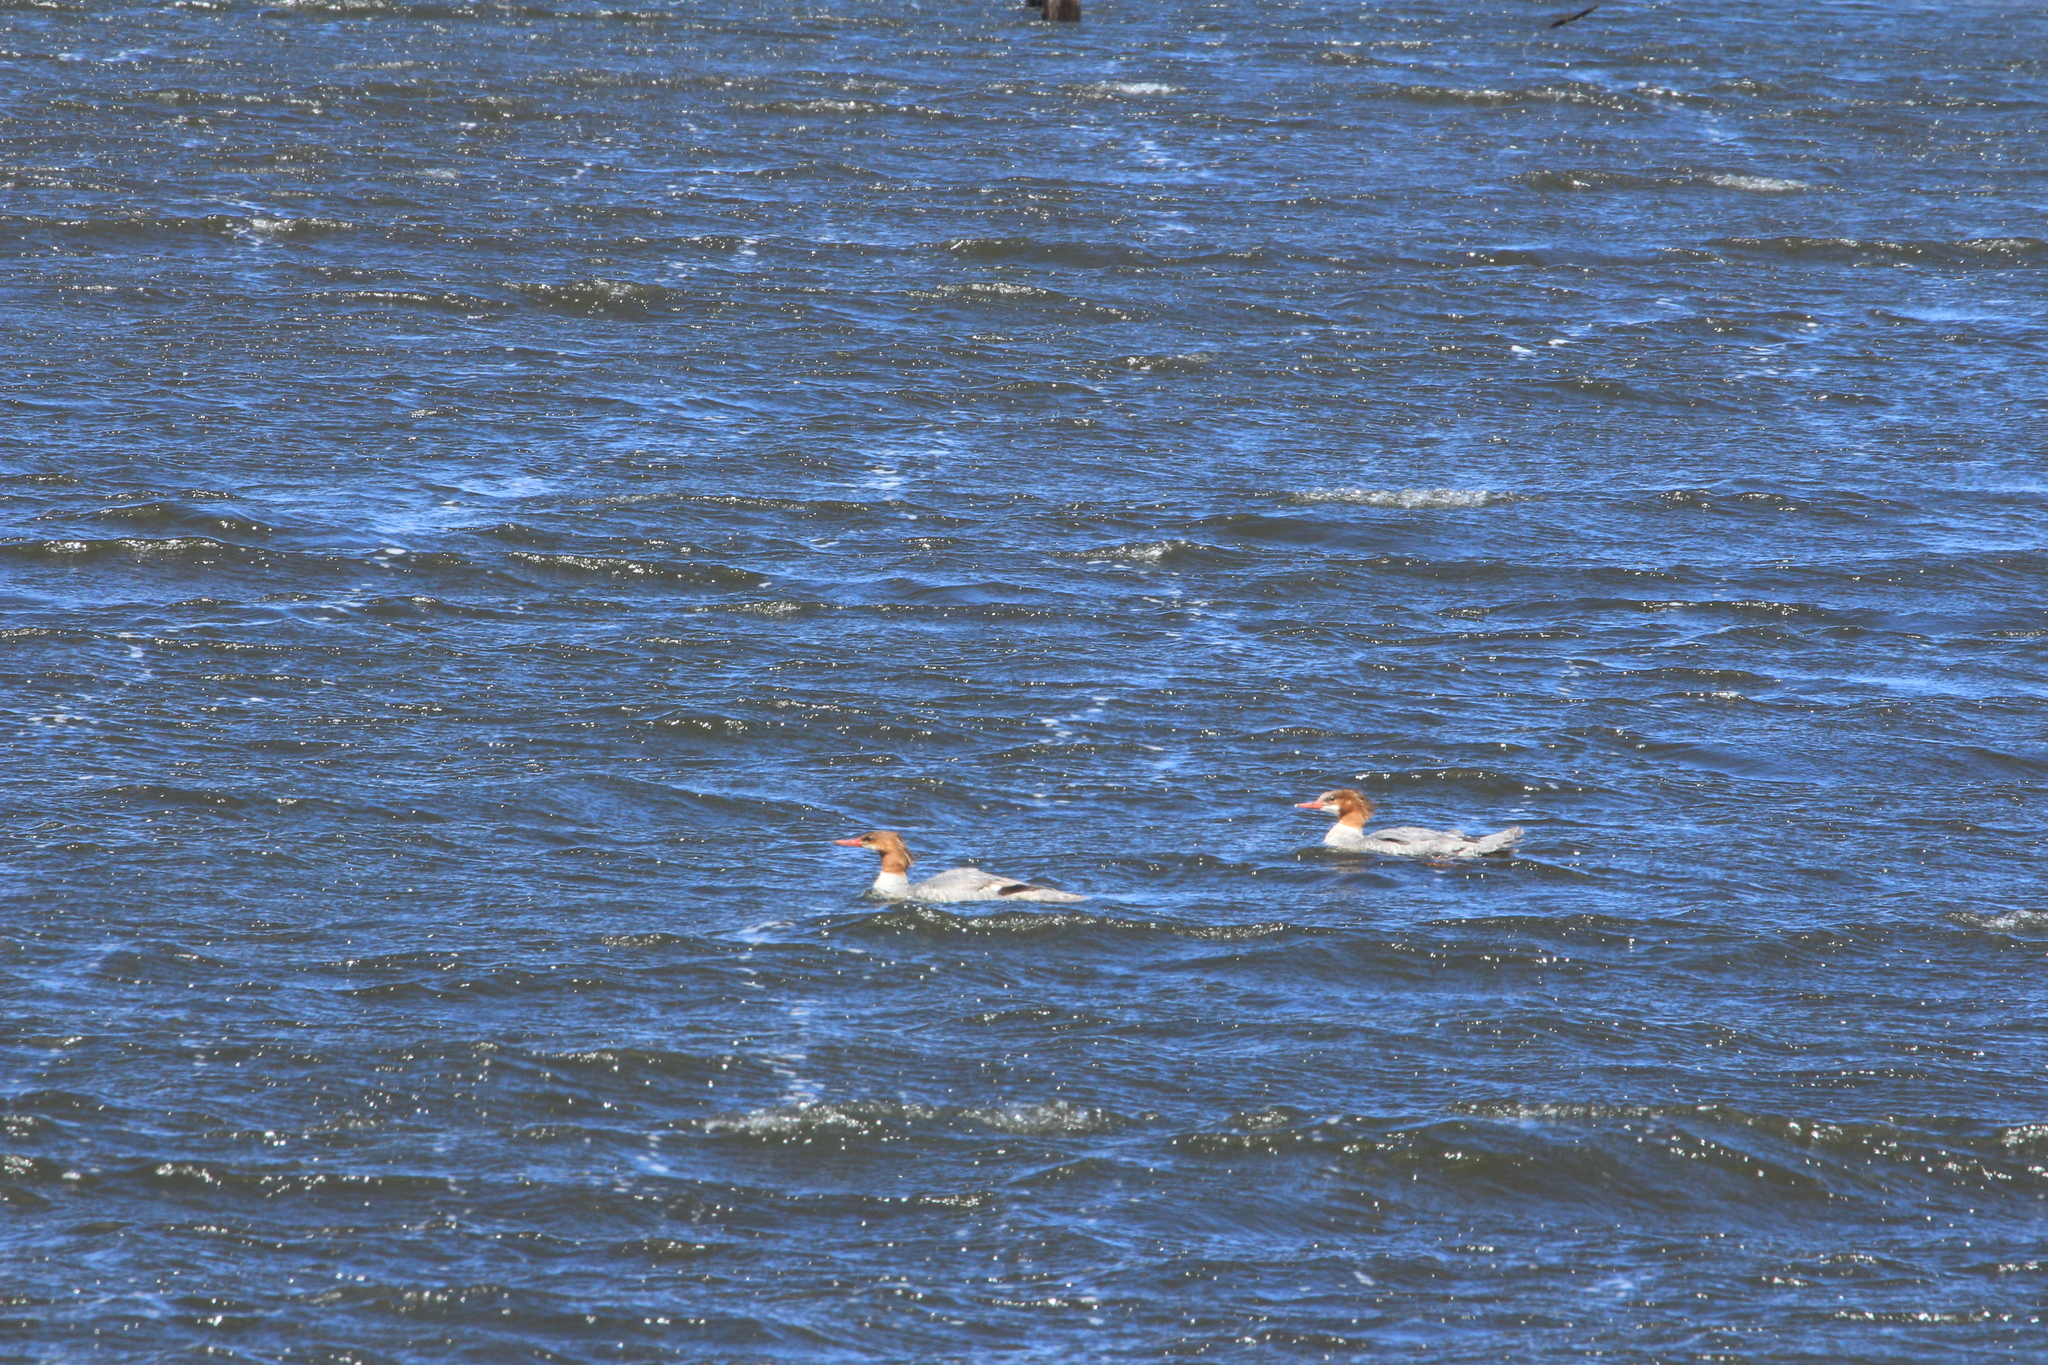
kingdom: Animalia
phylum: Chordata
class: Aves
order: Anseriformes
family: Anatidae
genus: Mergus
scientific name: Mergus merganser
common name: Common merganser
